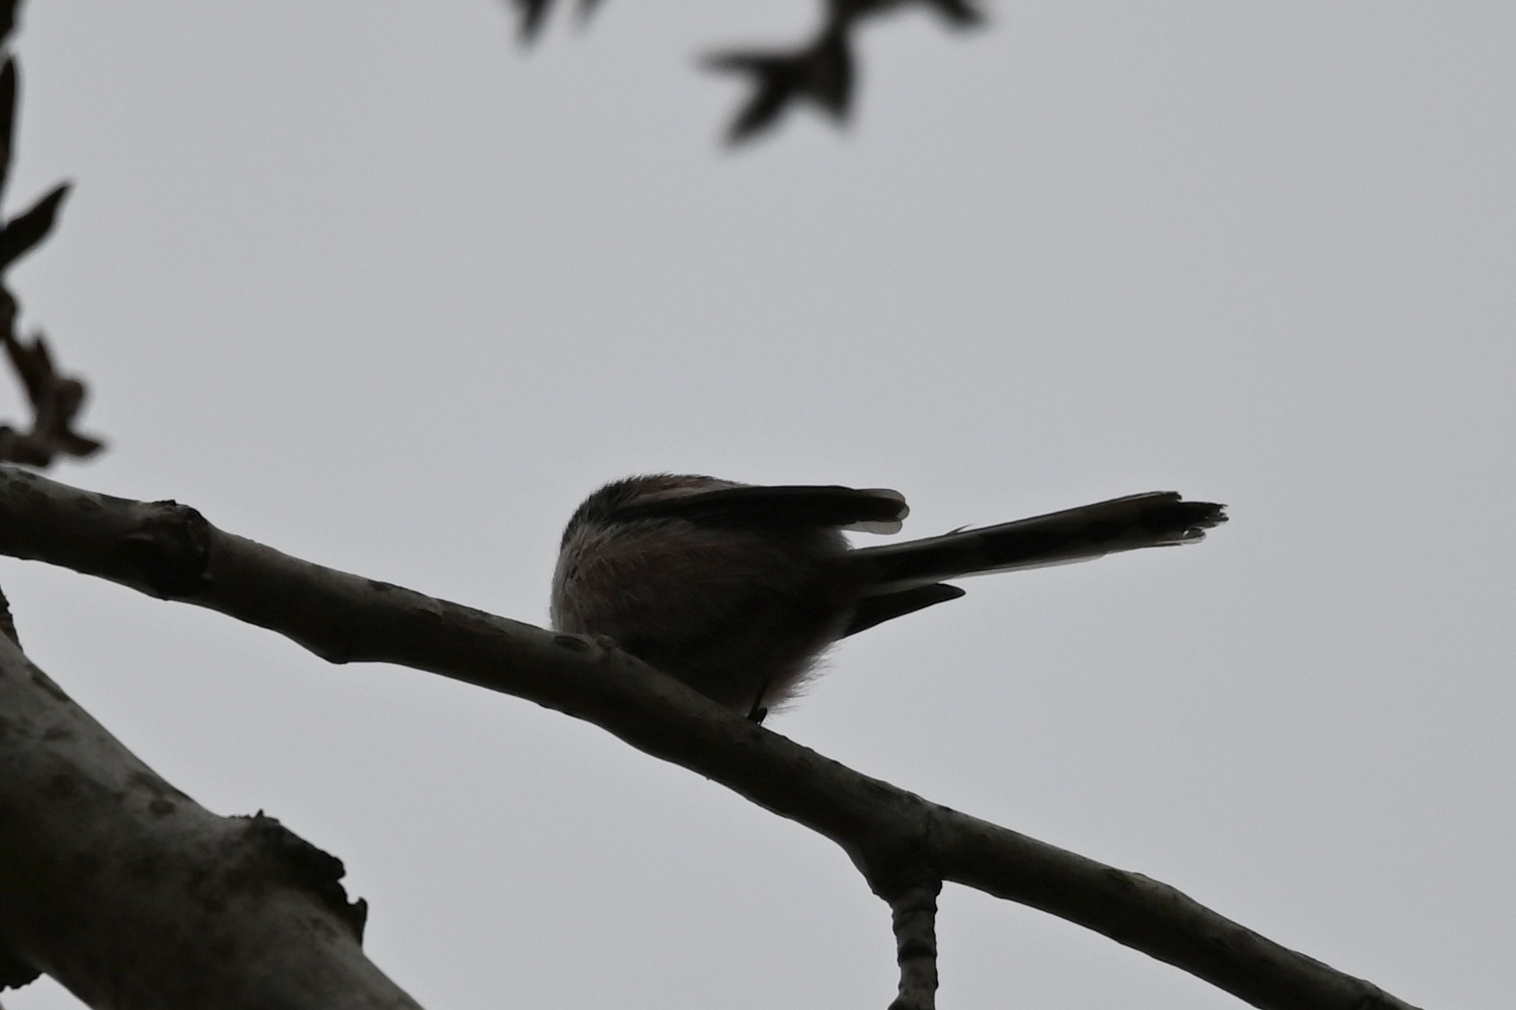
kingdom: Animalia
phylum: Chordata
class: Aves
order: Passeriformes
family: Aegithalidae
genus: Aegithalos
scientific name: Aegithalos caudatus
